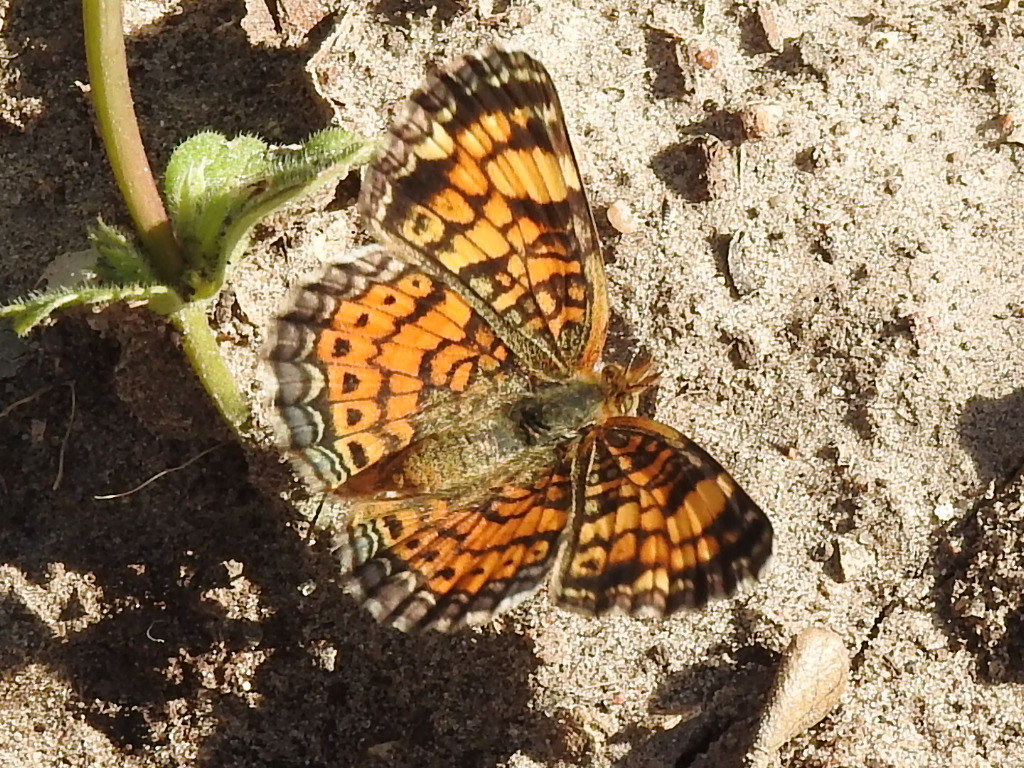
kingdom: Animalia
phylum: Arthropoda
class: Insecta
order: Lepidoptera
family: Nymphalidae
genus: Phyciodes
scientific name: Phyciodes tharos
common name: Pearl crescent
